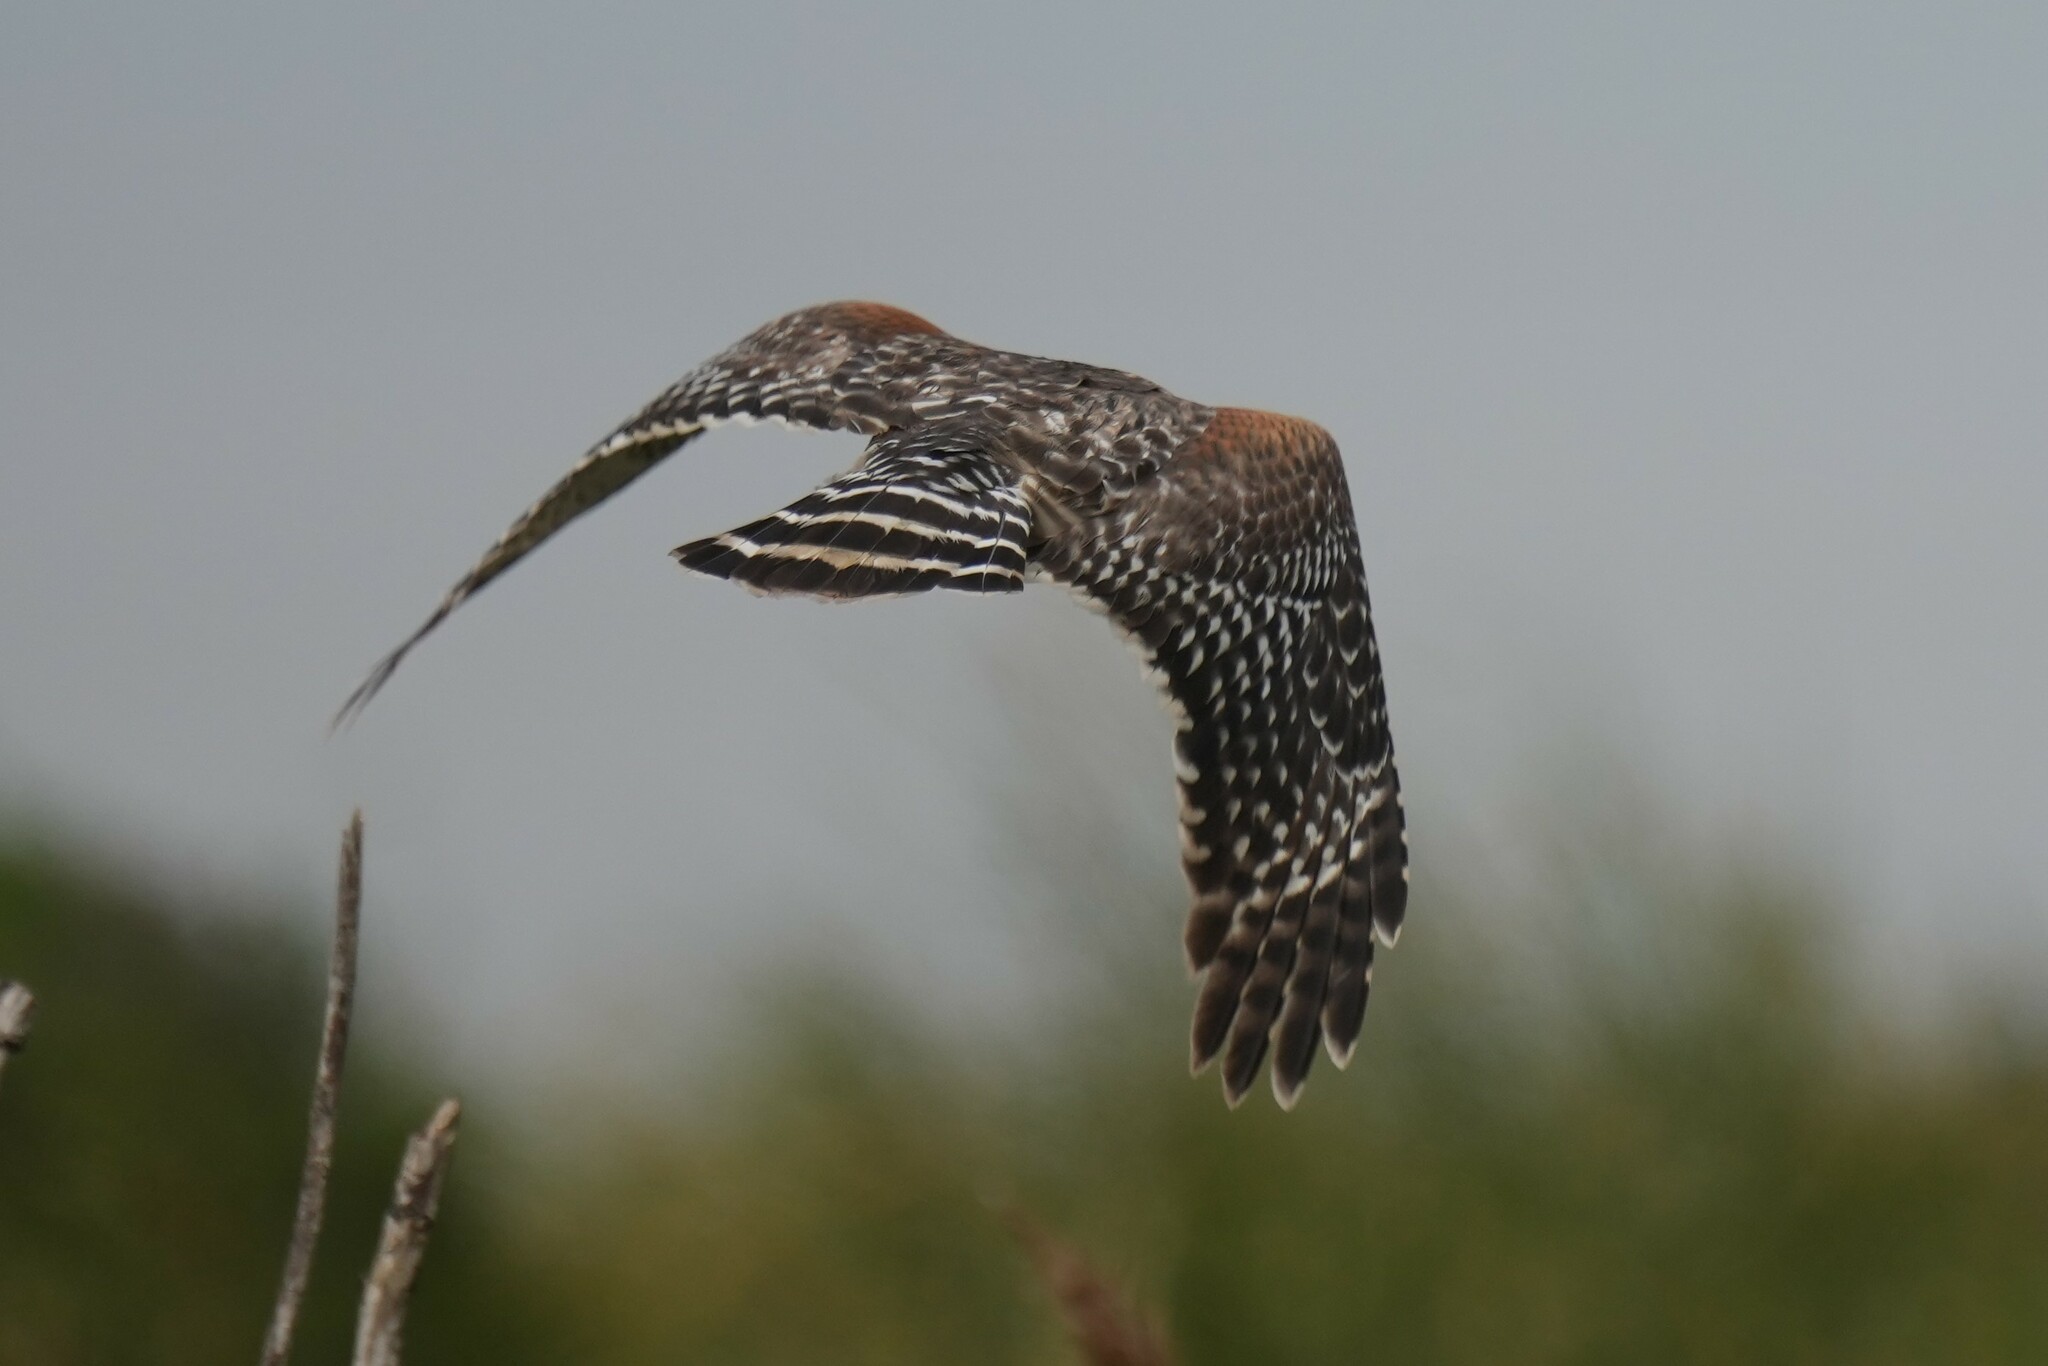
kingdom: Animalia
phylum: Chordata
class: Aves
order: Accipitriformes
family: Accipitridae
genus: Buteo
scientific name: Buteo lineatus
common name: Red-shouldered hawk
